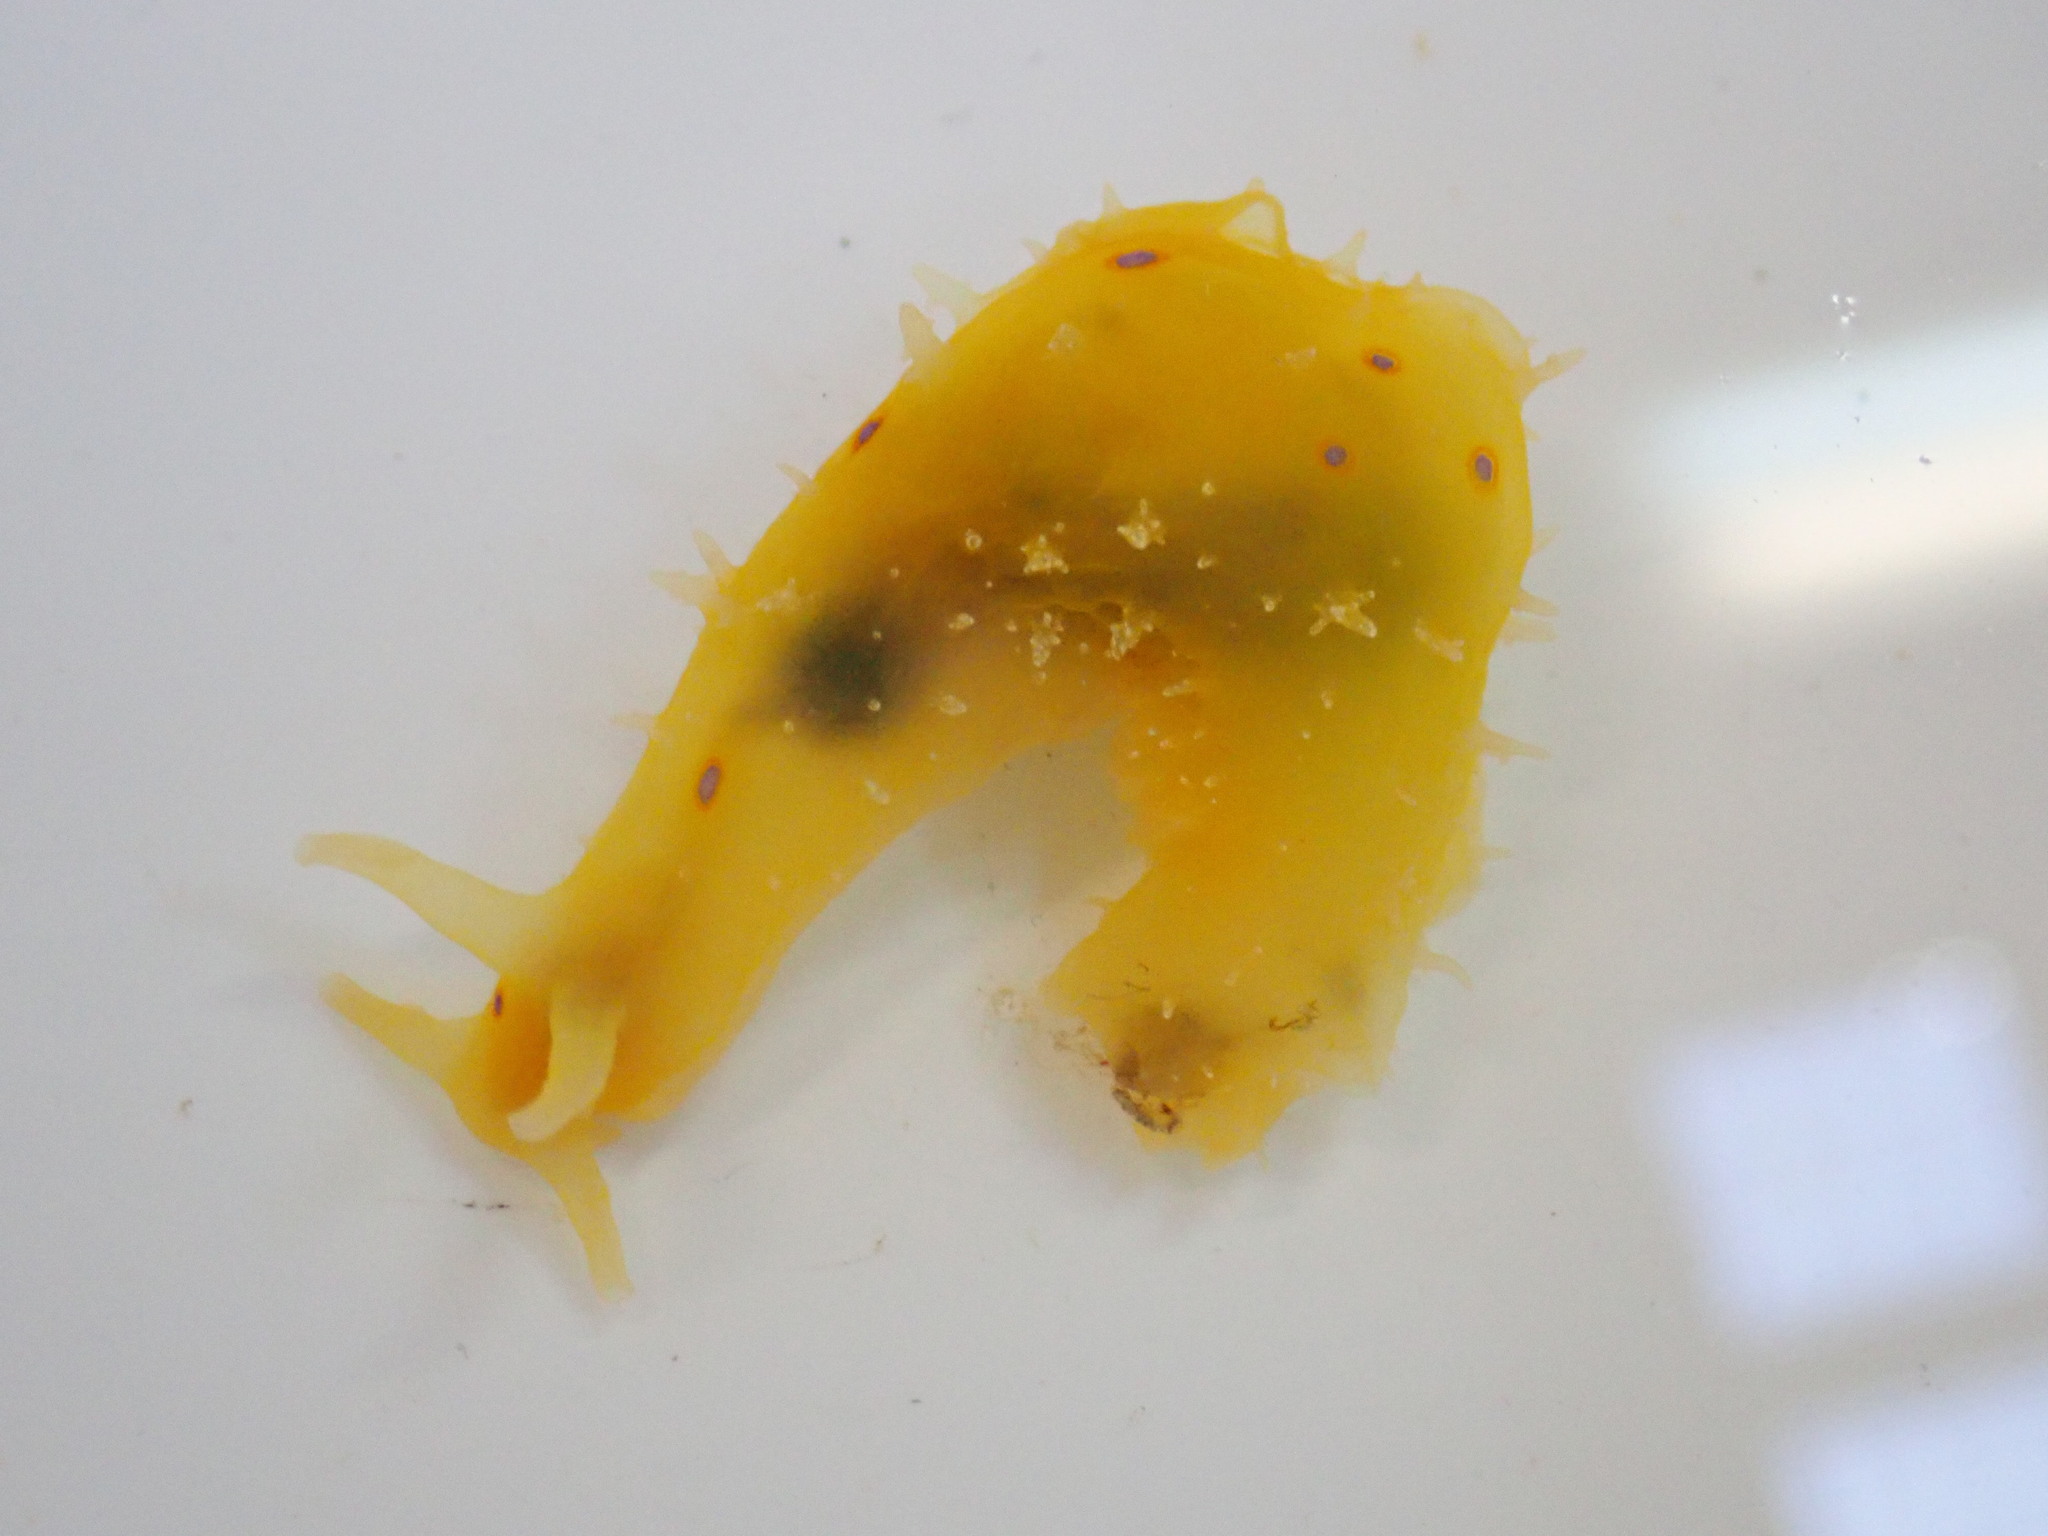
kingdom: Animalia
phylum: Mollusca
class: Gastropoda
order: Aplysiida
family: Aplysiidae
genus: Stylocheilus
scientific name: Stylocheilus longicauda
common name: Blue-ring sea hare
